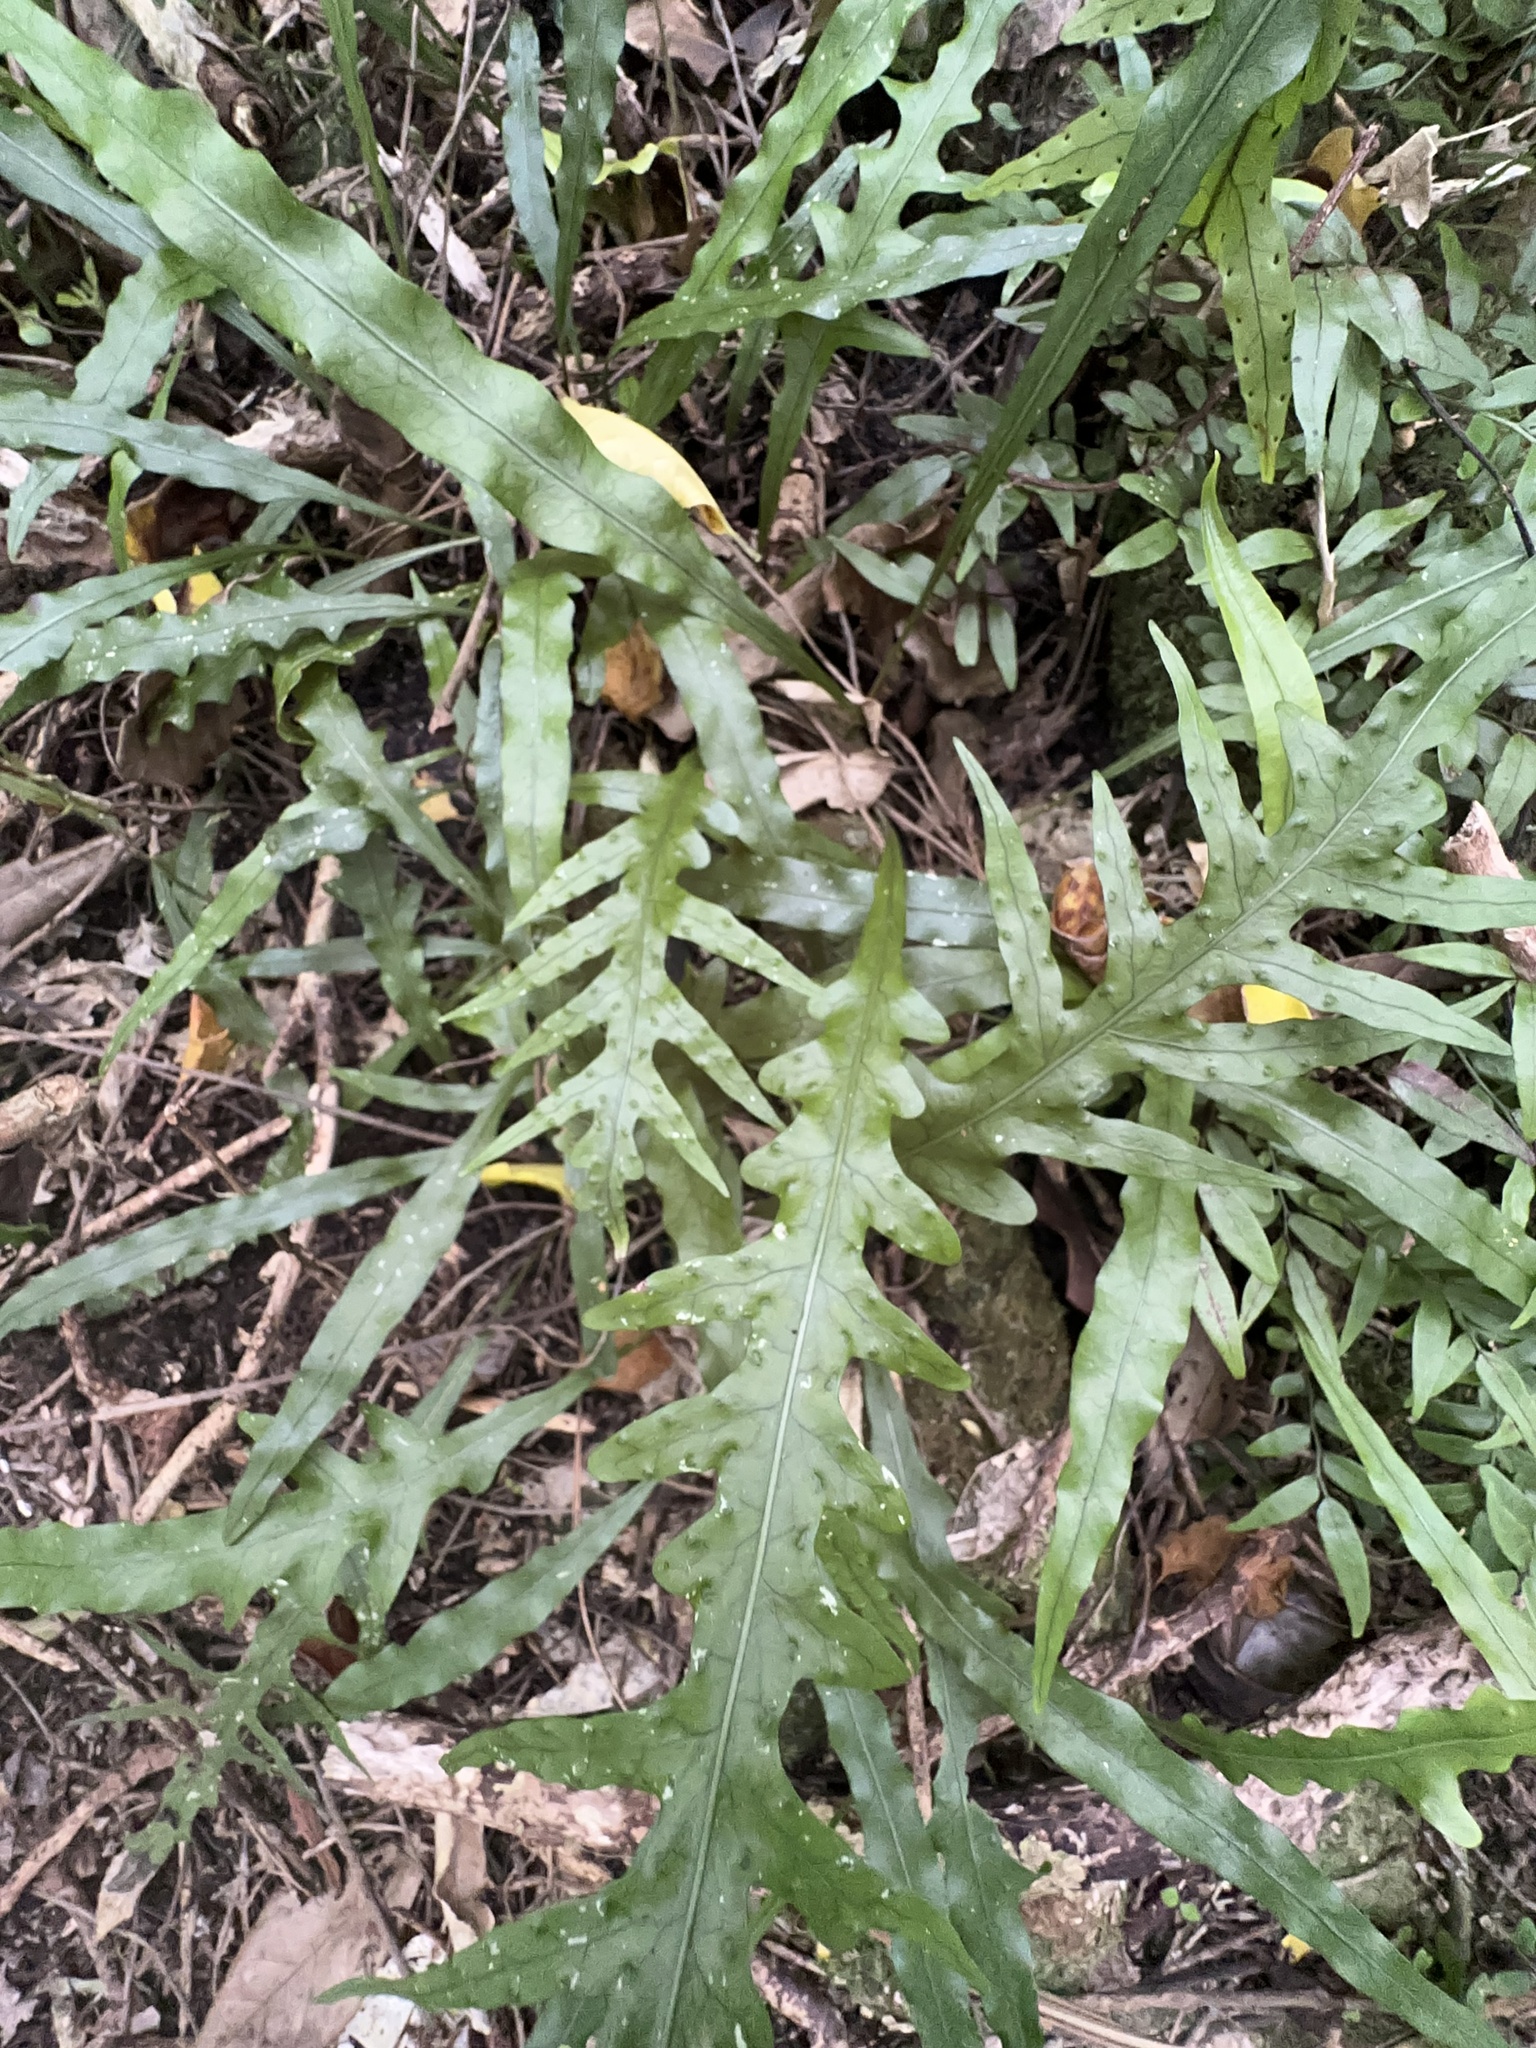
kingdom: Plantae
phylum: Tracheophyta
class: Polypodiopsida
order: Polypodiales
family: Polypodiaceae
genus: Lecanopteris
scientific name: Lecanopteris scandens
